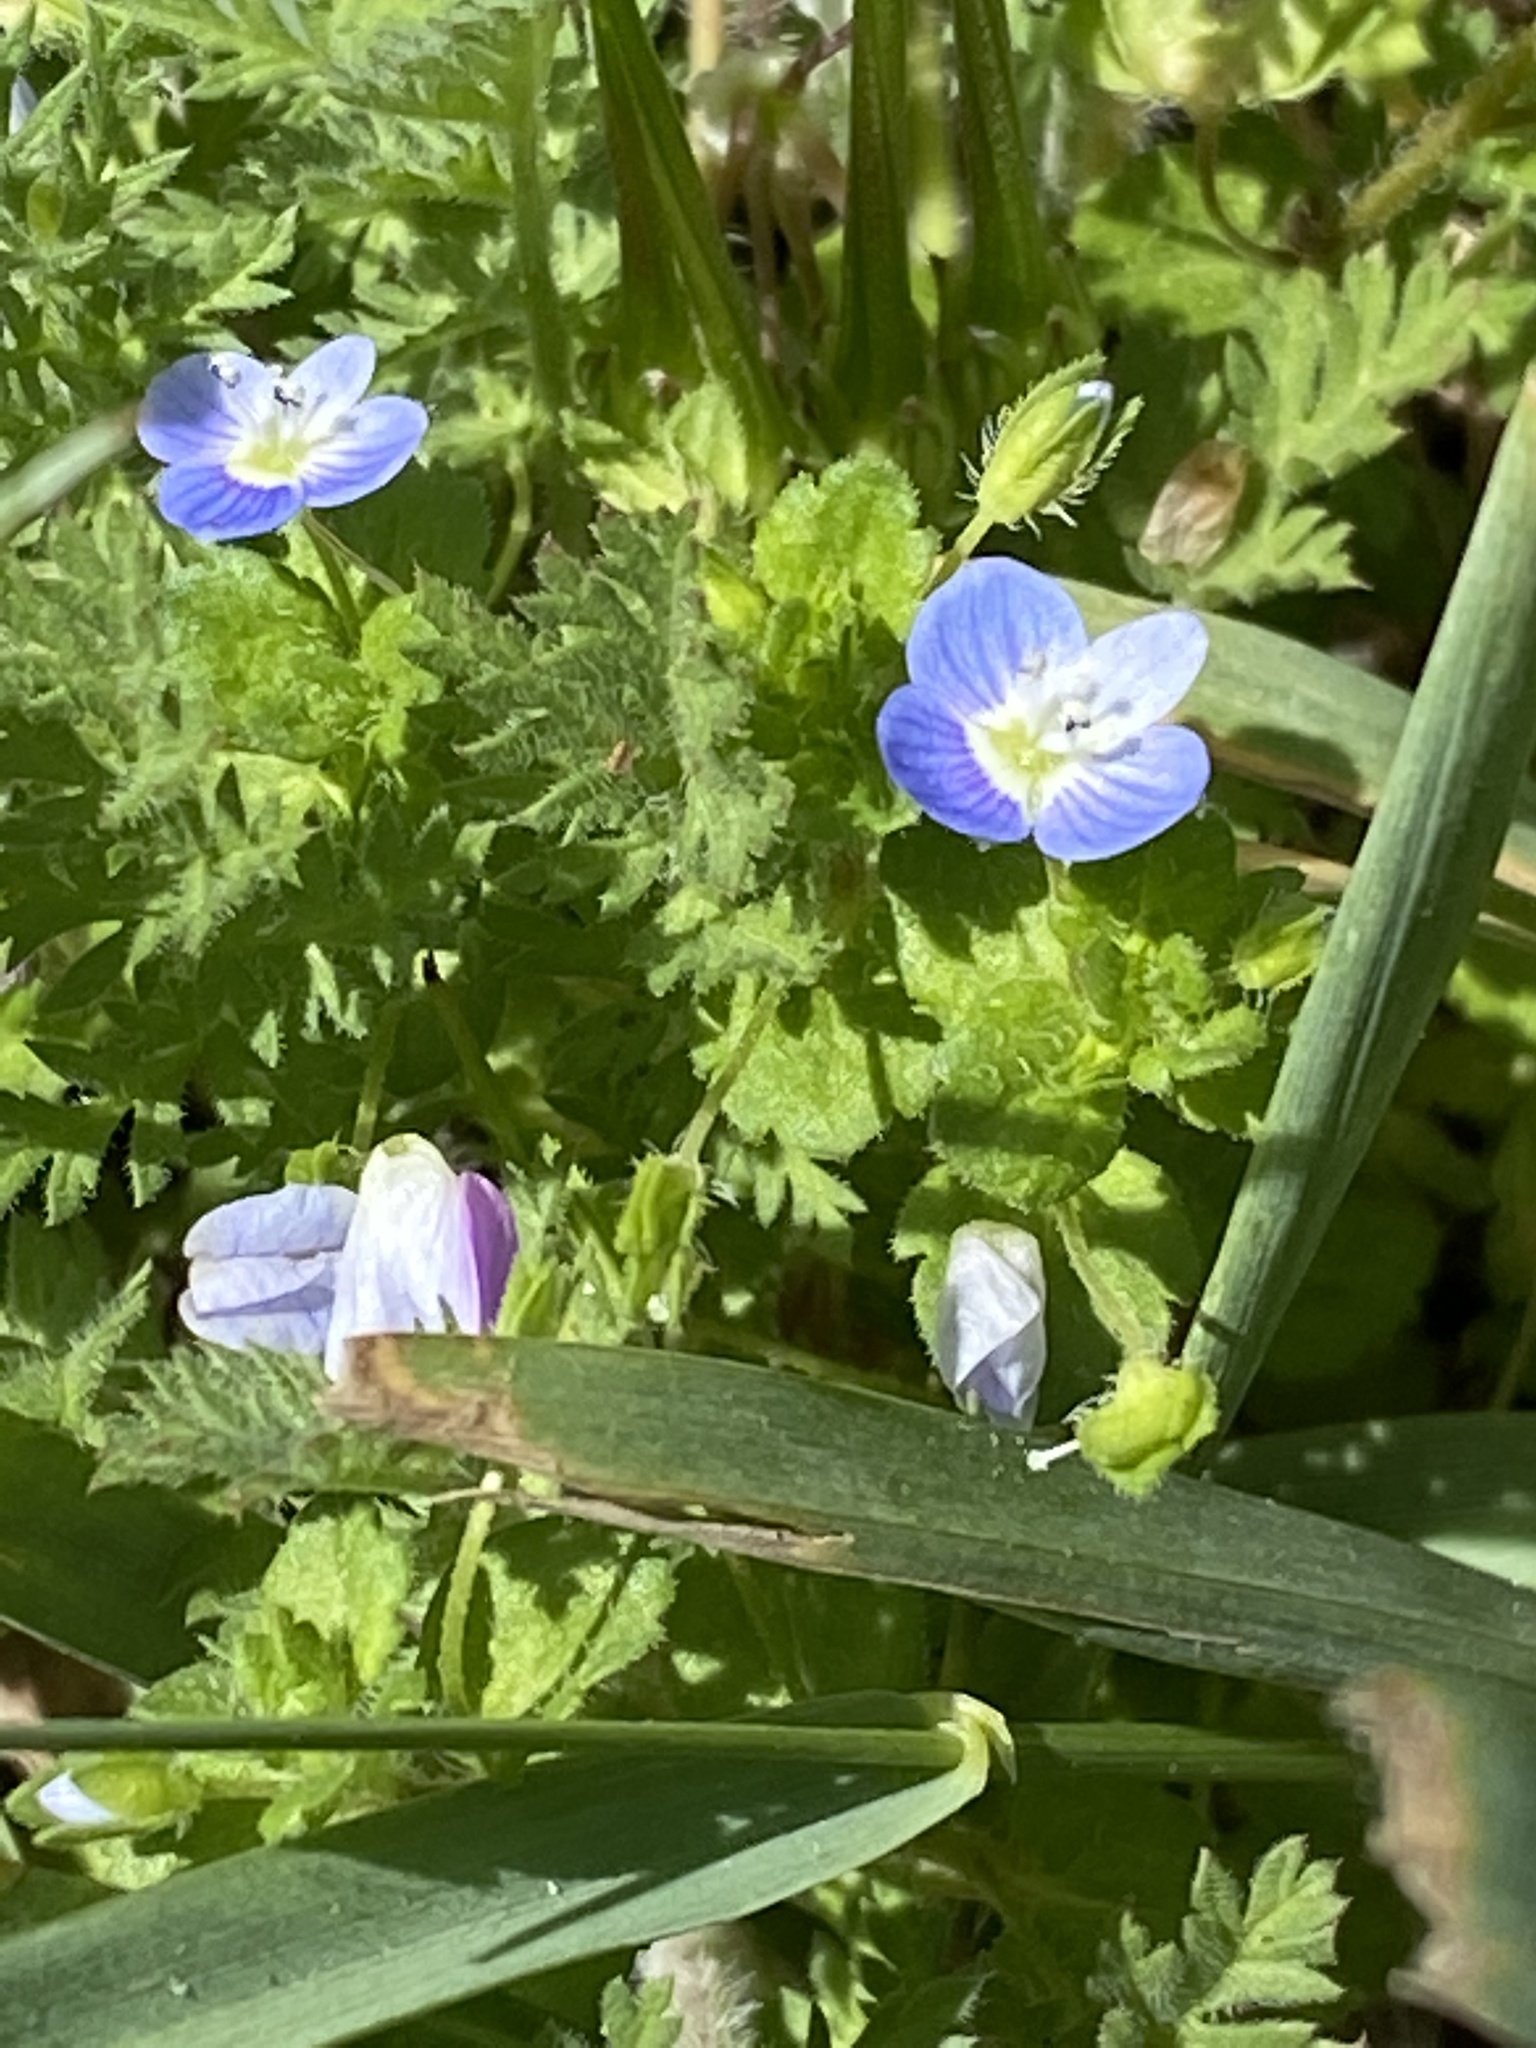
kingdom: Plantae
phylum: Tracheophyta
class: Magnoliopsida
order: Lamiales
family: Plantaginaceae
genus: Veronica
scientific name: Veronica persica
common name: Common field-speedwell
